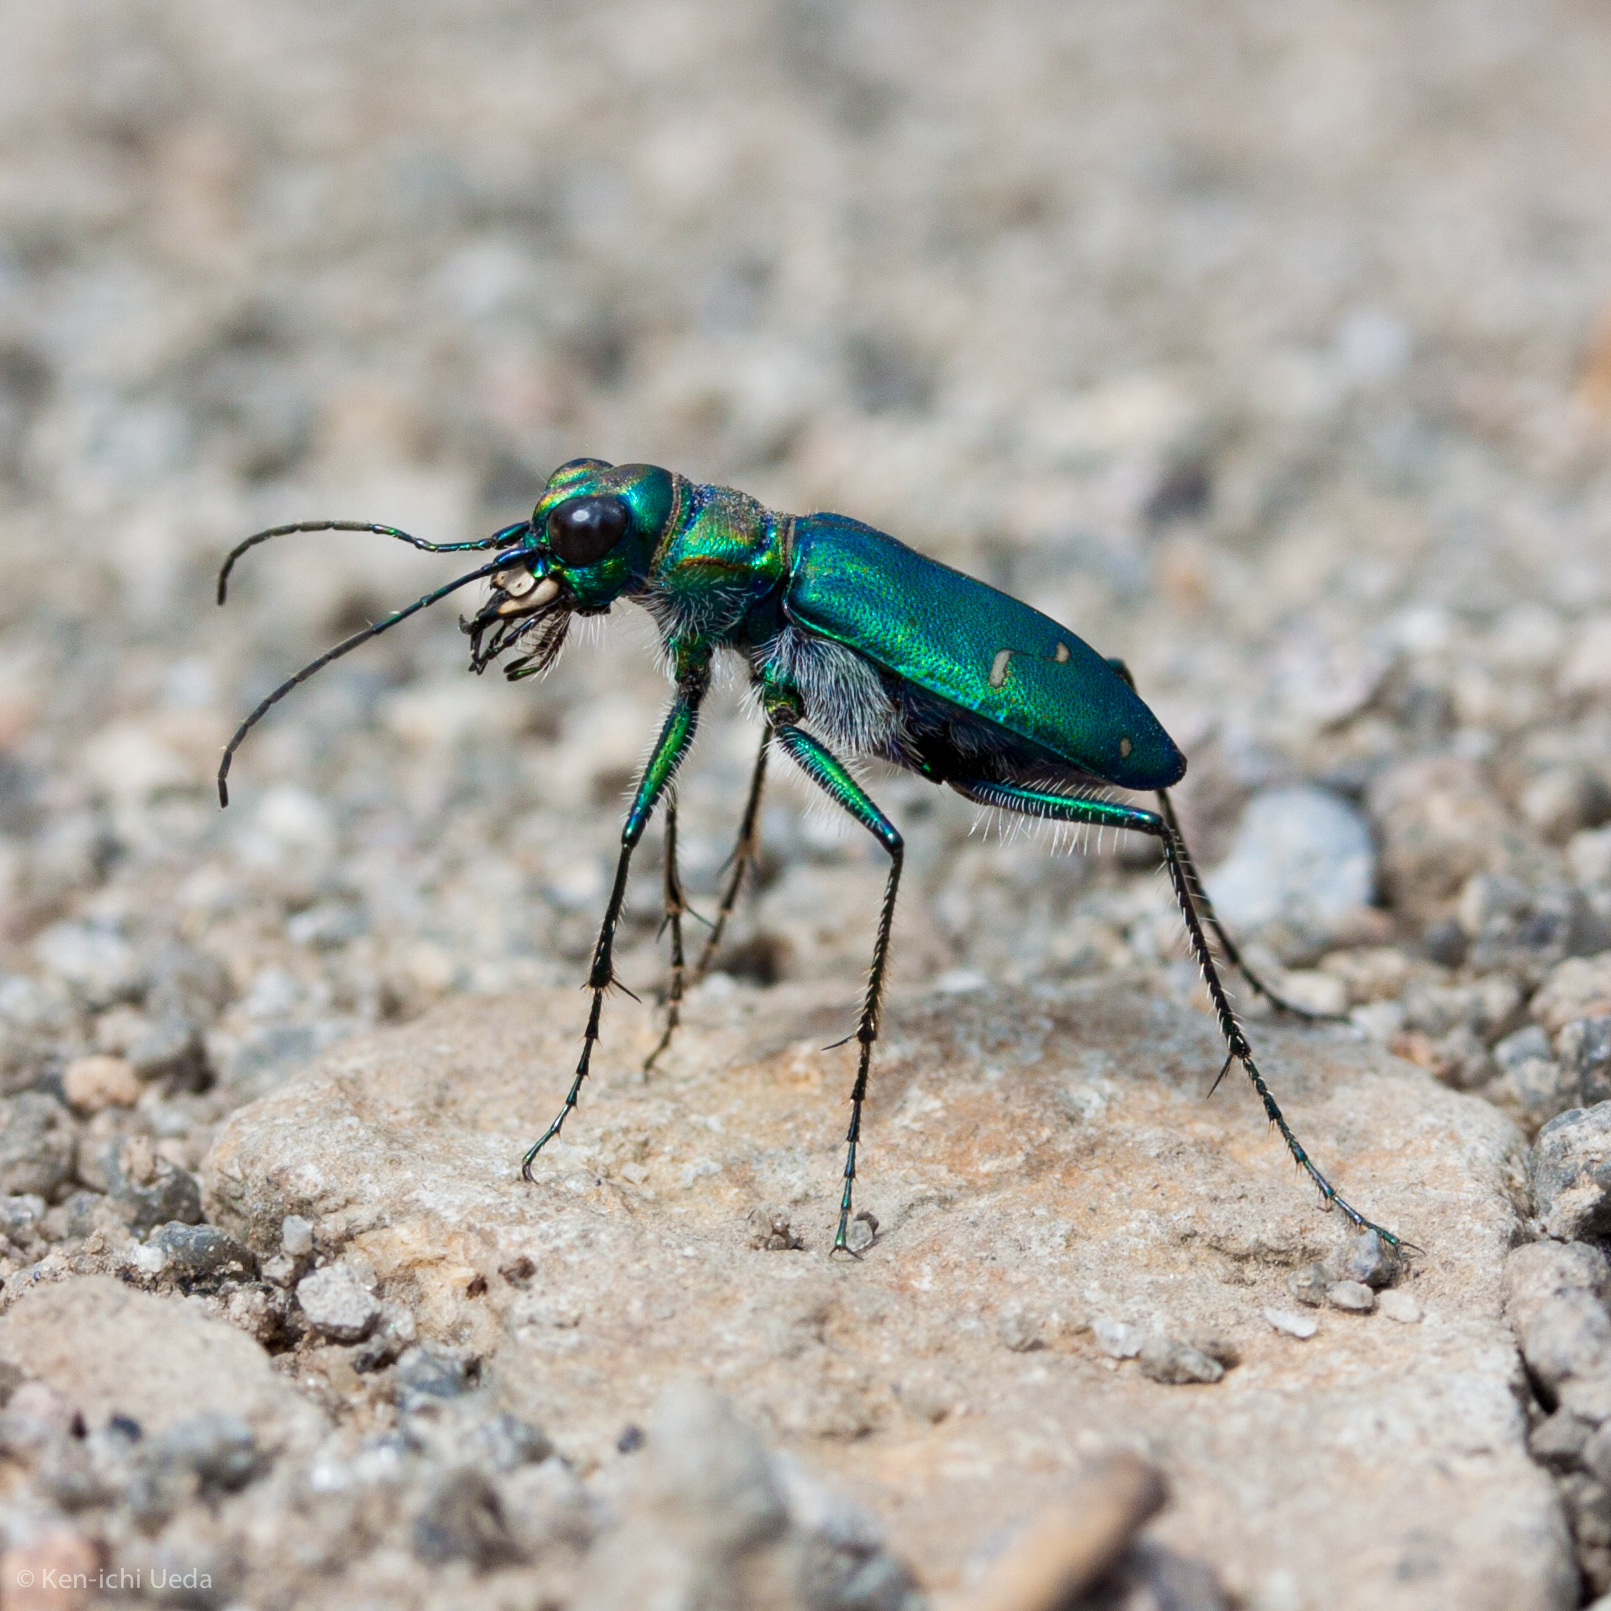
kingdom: Animalia
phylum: Arthropoda
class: Insecta
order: Coleoptera
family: Carabidae
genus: Cicindela
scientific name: Cicindela depressula
